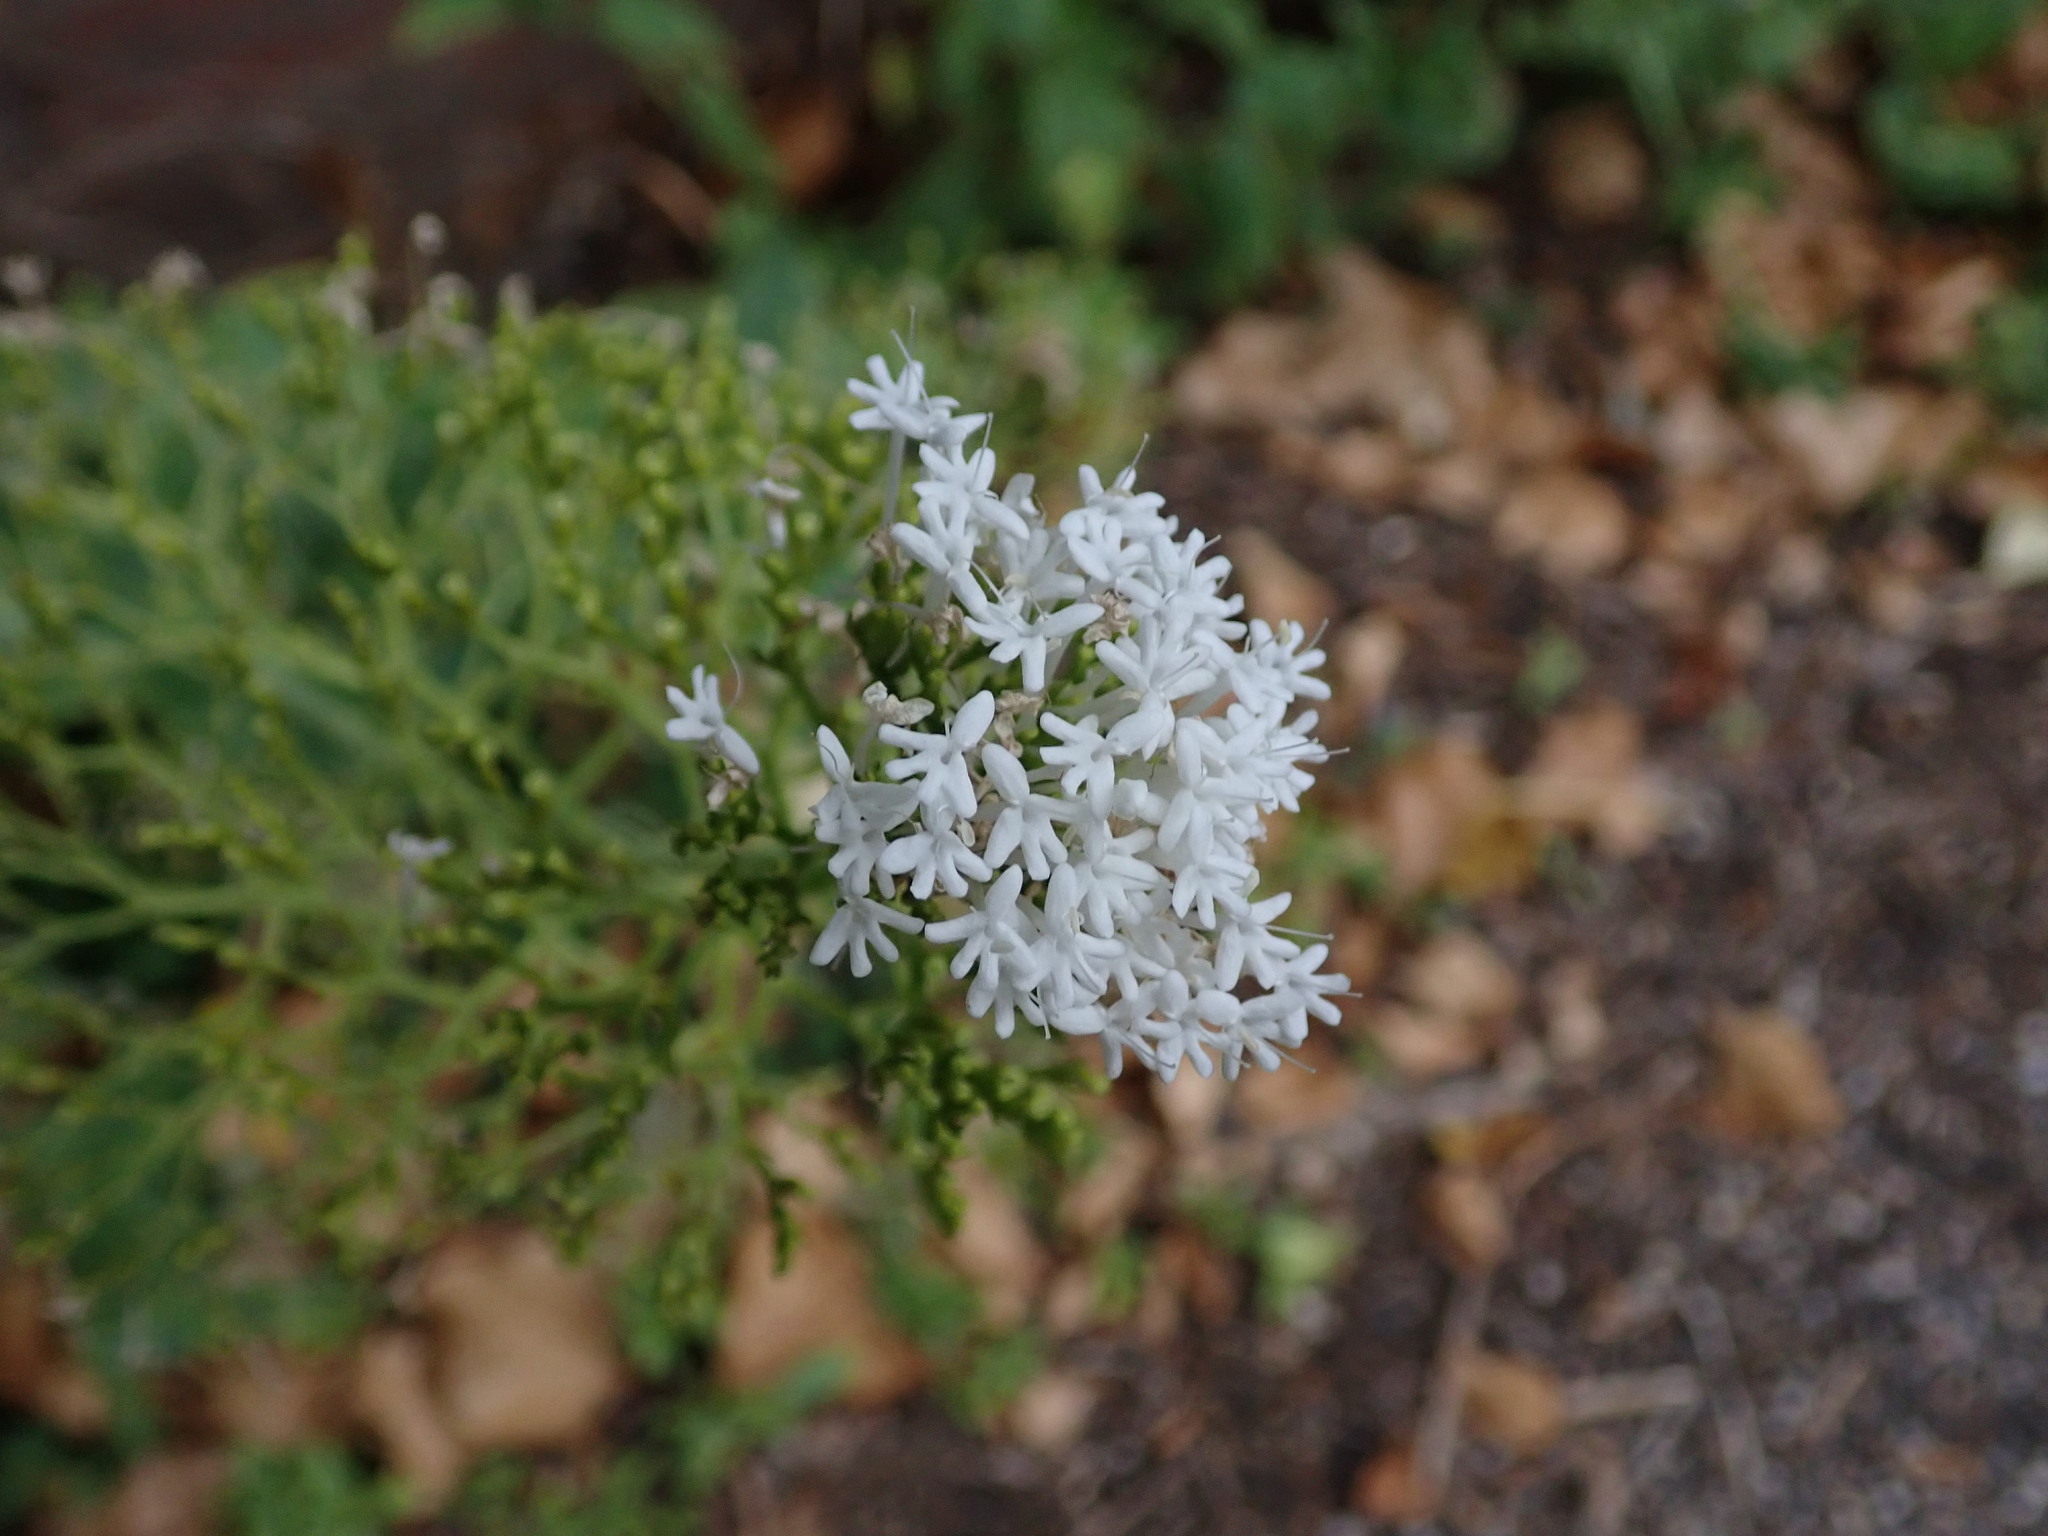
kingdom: Plantae
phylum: Tracheophyta
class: Magnoliopsida
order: Dipsacales
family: Caprifoliaceae
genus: Centranthus
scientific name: Centranthus ruber
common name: Red valerian
